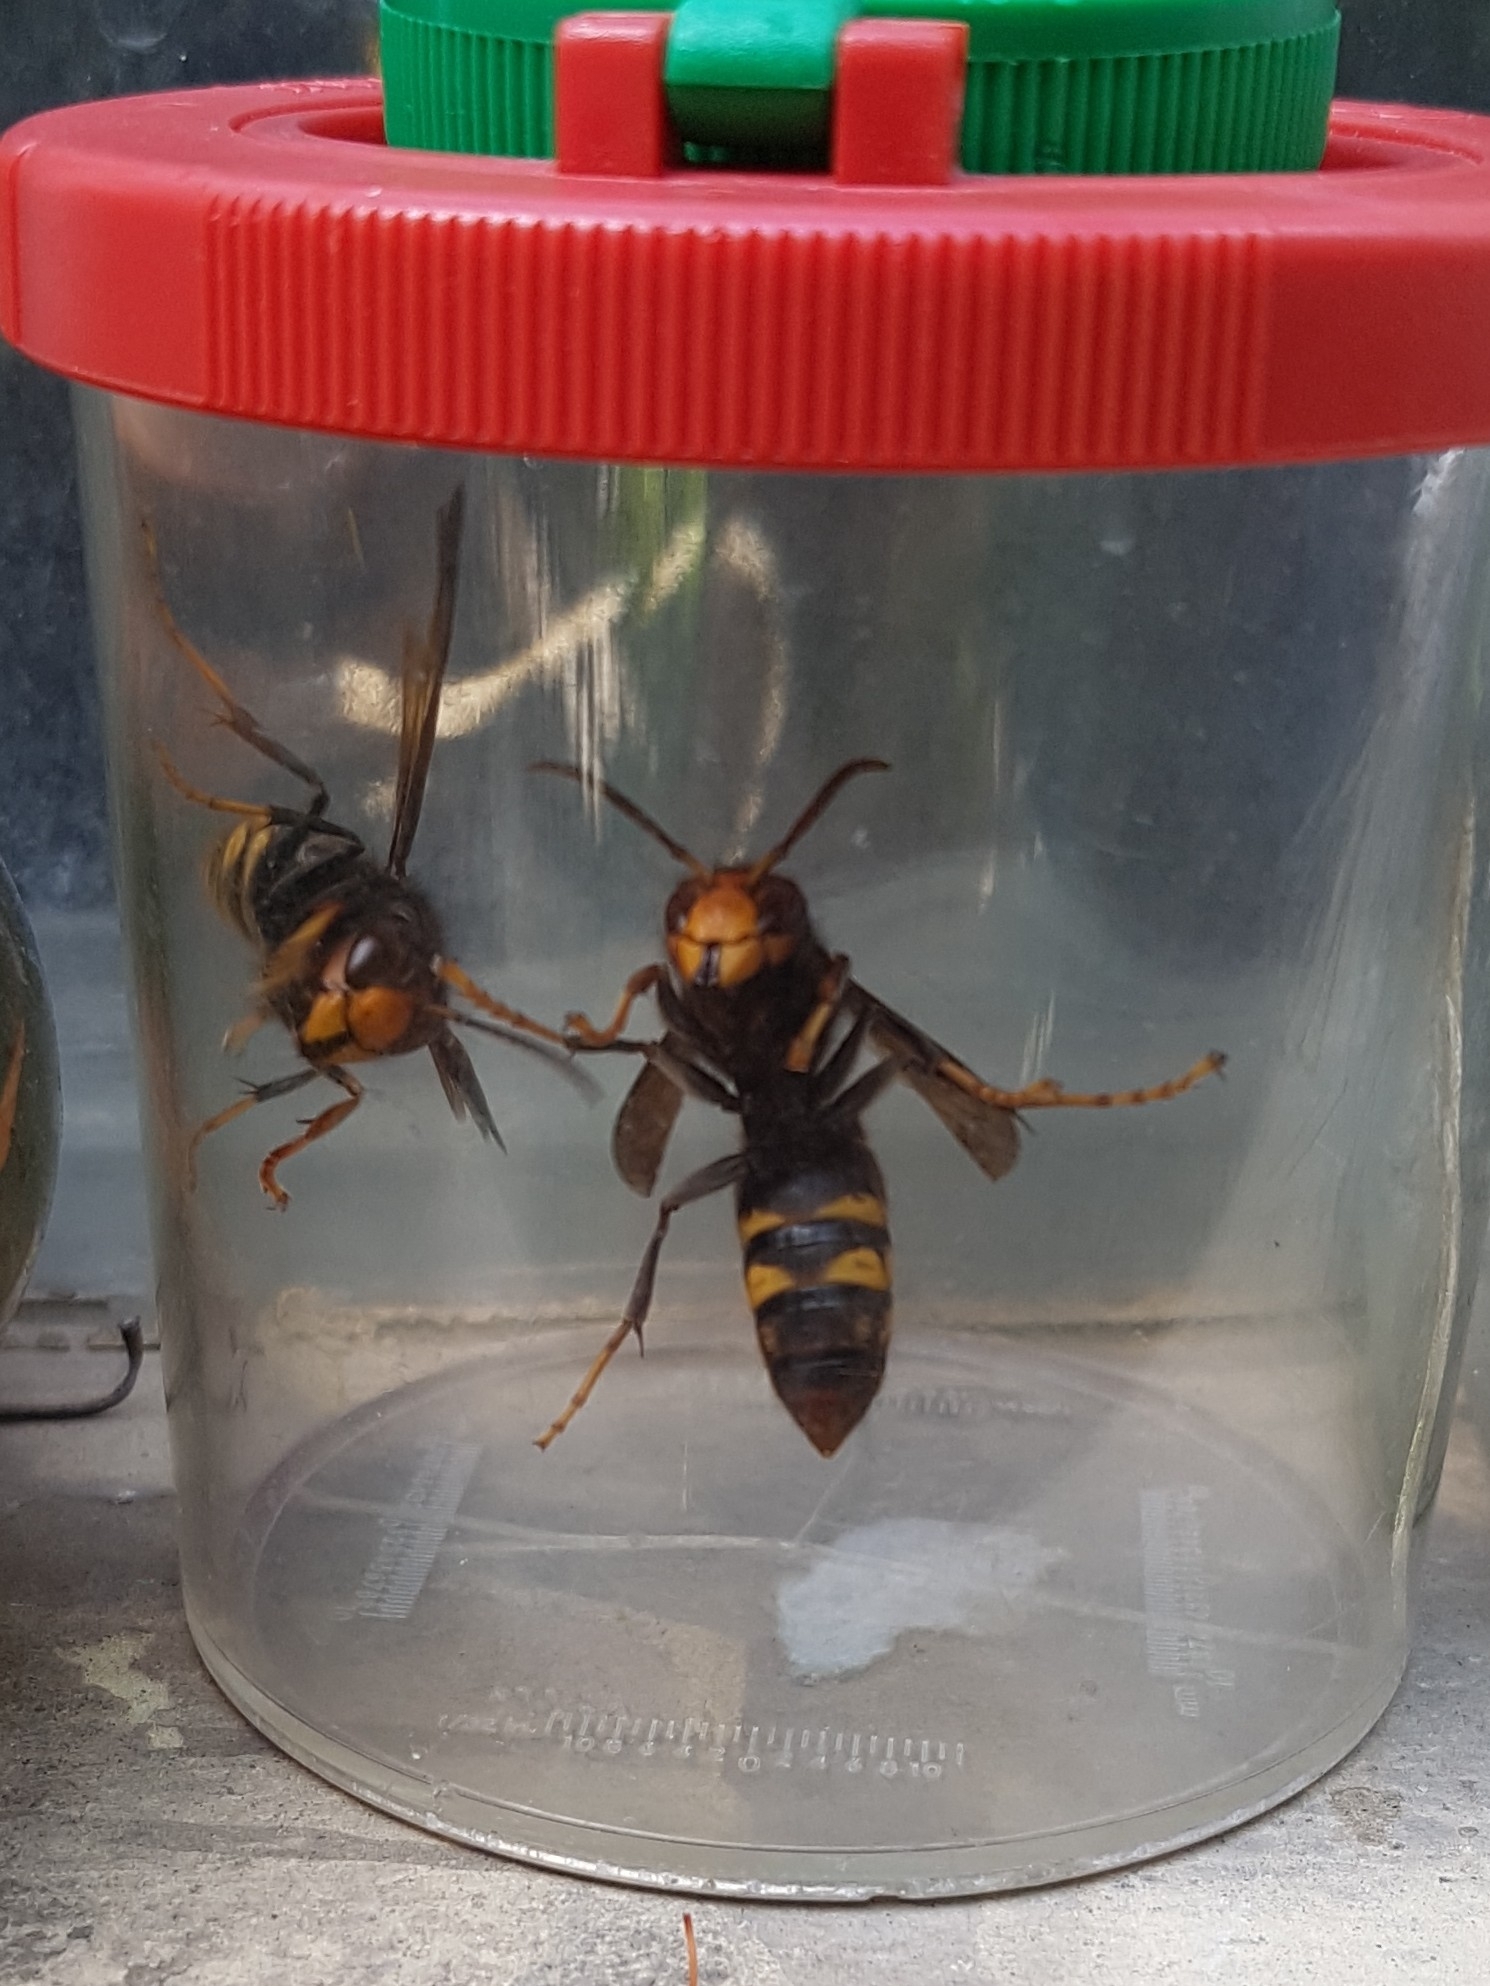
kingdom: Animalia
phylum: Arthropoda
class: Insecta
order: Hymenoptera
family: Vespidae
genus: Vespa
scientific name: Vespa velutina
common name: Asian hornet
